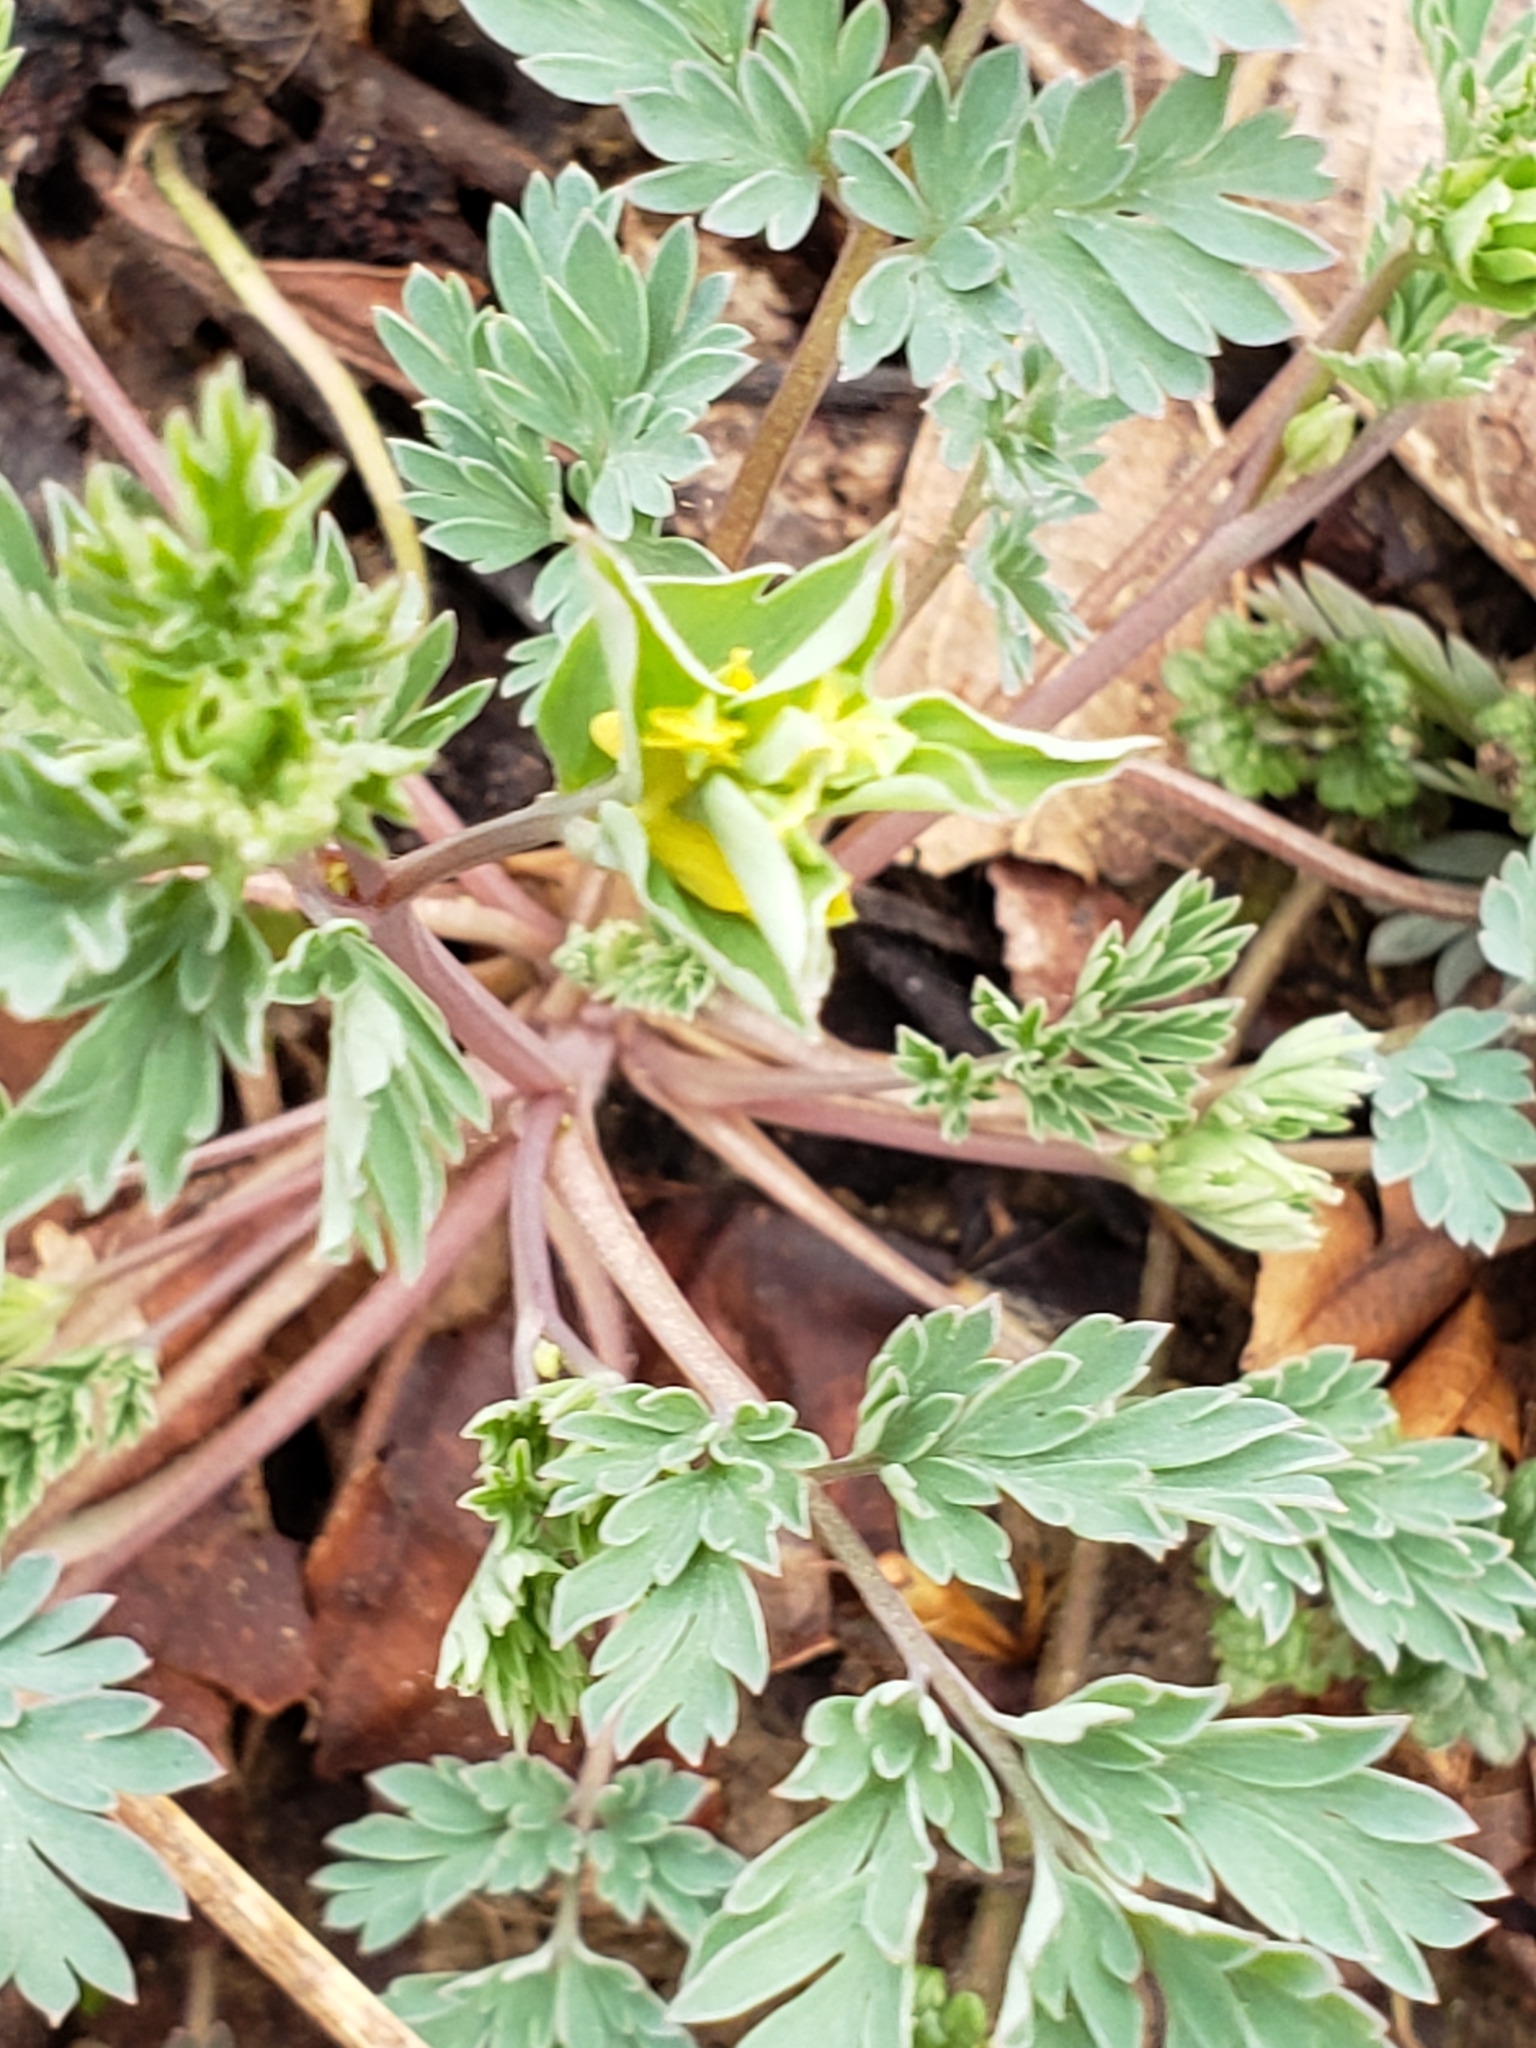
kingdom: Plantae
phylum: Tracheophyta
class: Magnoliopsida
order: Ranunculales
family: Papaveraceae
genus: Corydalis
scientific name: Corydalis flavula
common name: Yellow corydalis
